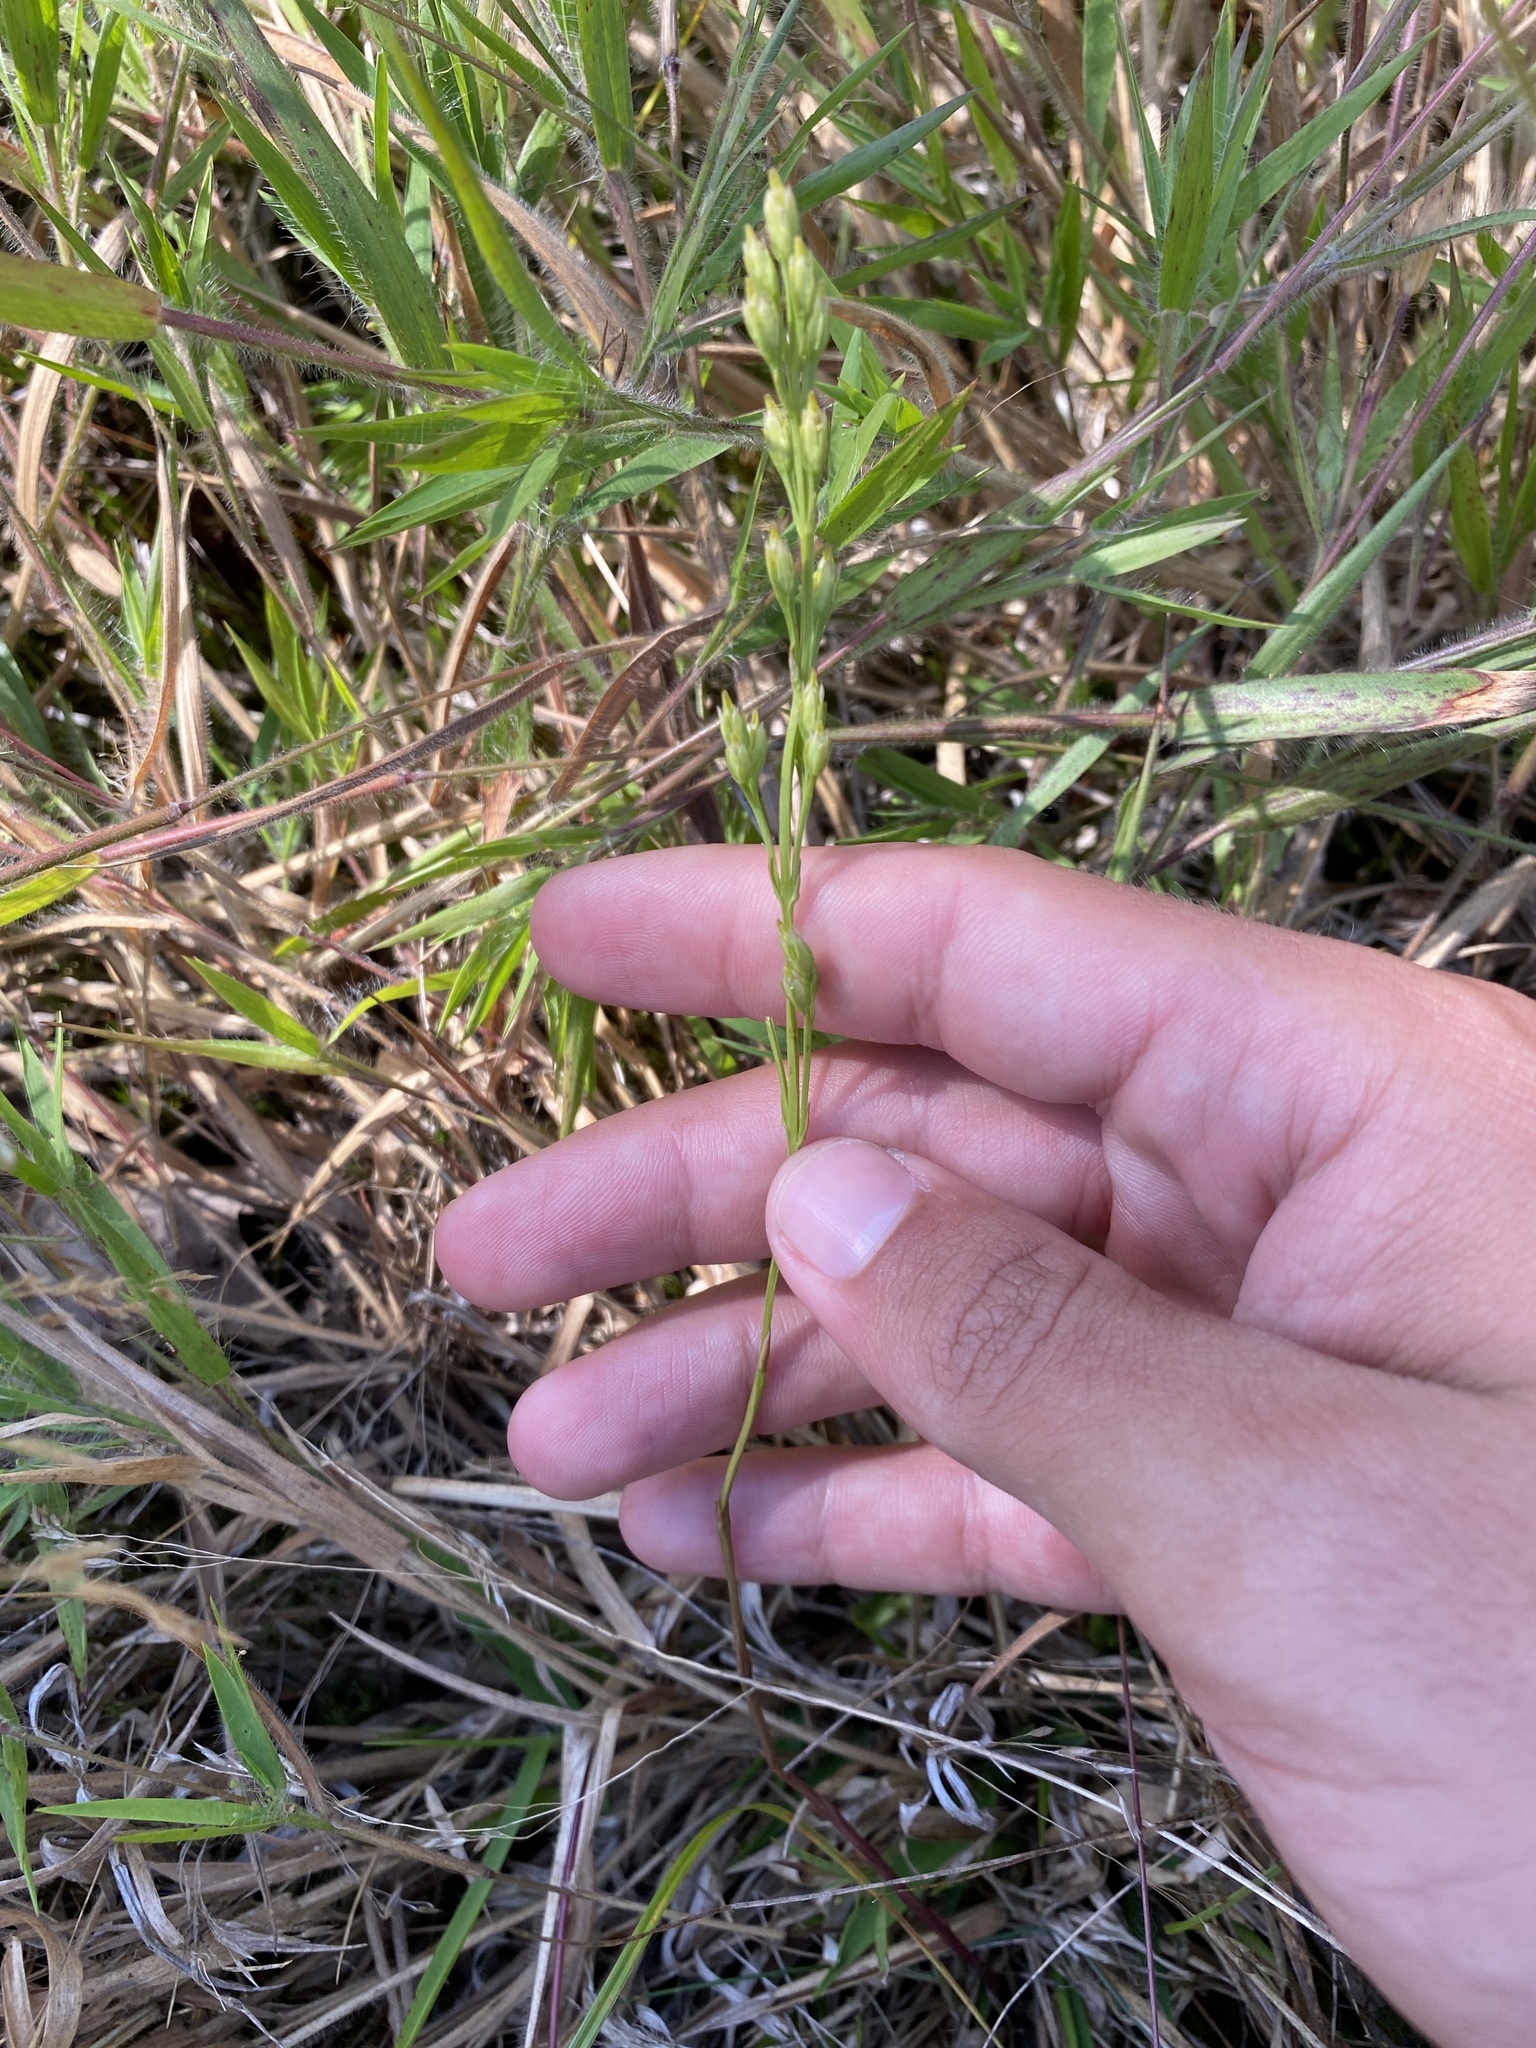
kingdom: Plantae
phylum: Tracheophyta
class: Magnoliopsida
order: Gentianales
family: Gentianaceae
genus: Bartonia
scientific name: Bartonia virginica
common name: Yellow bartonia
